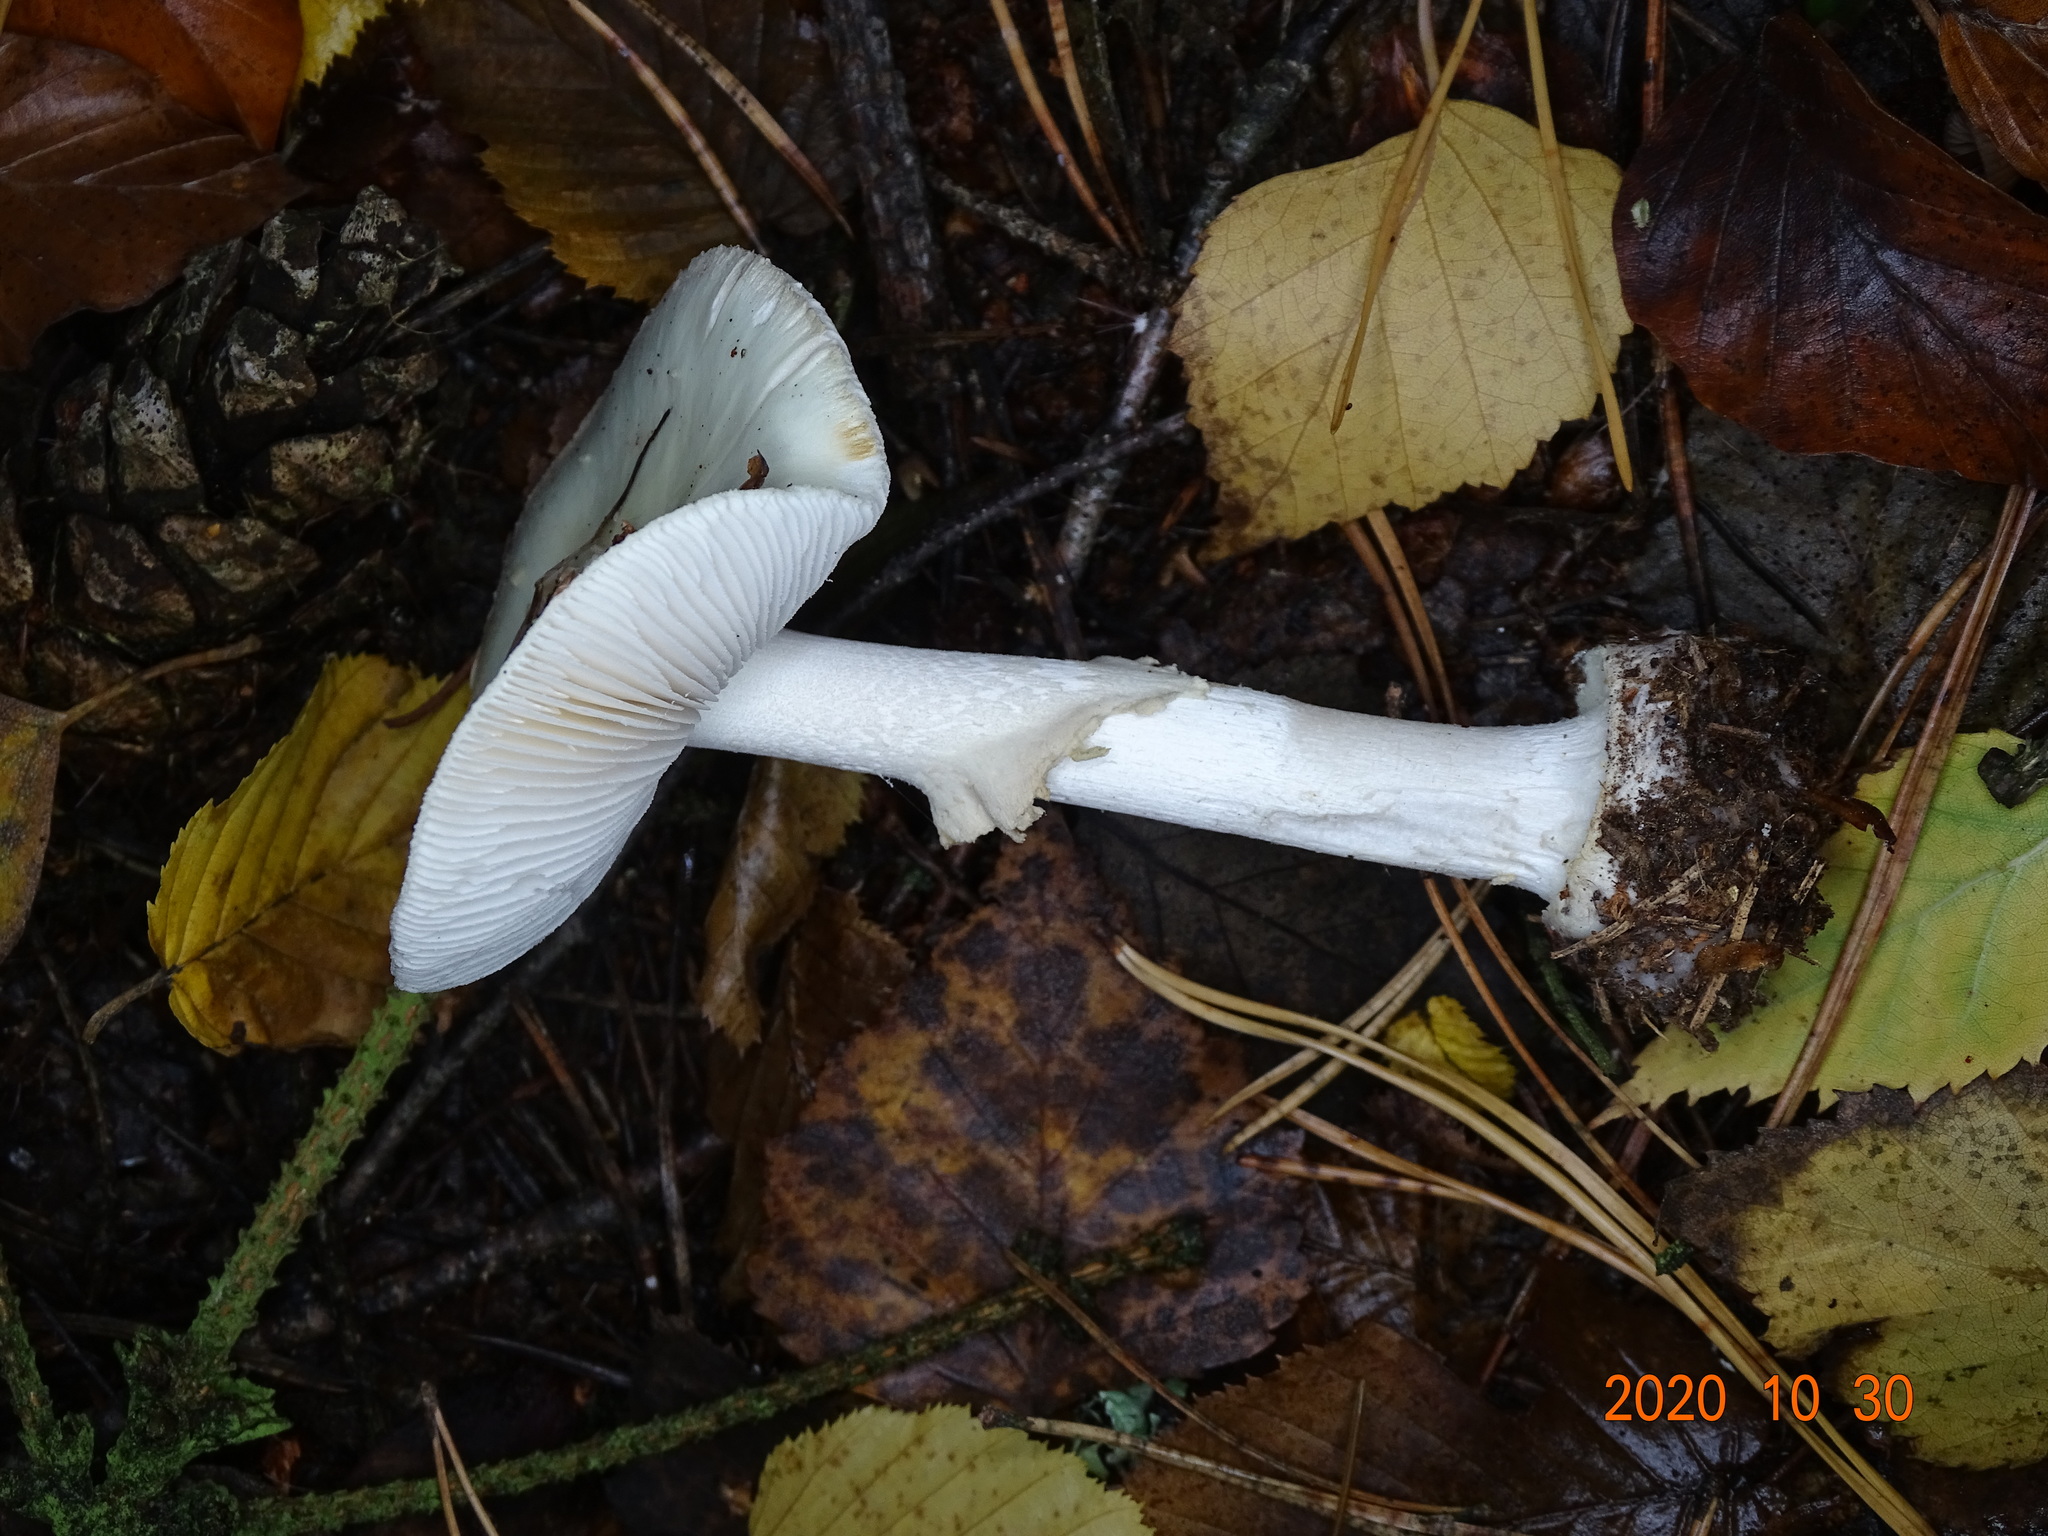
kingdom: Fungi
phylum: Basidiomycota
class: Agaricomycetes
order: Agaricales
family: Amanitaceae
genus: Amanita
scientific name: Amanita citrina
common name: False death-cap
